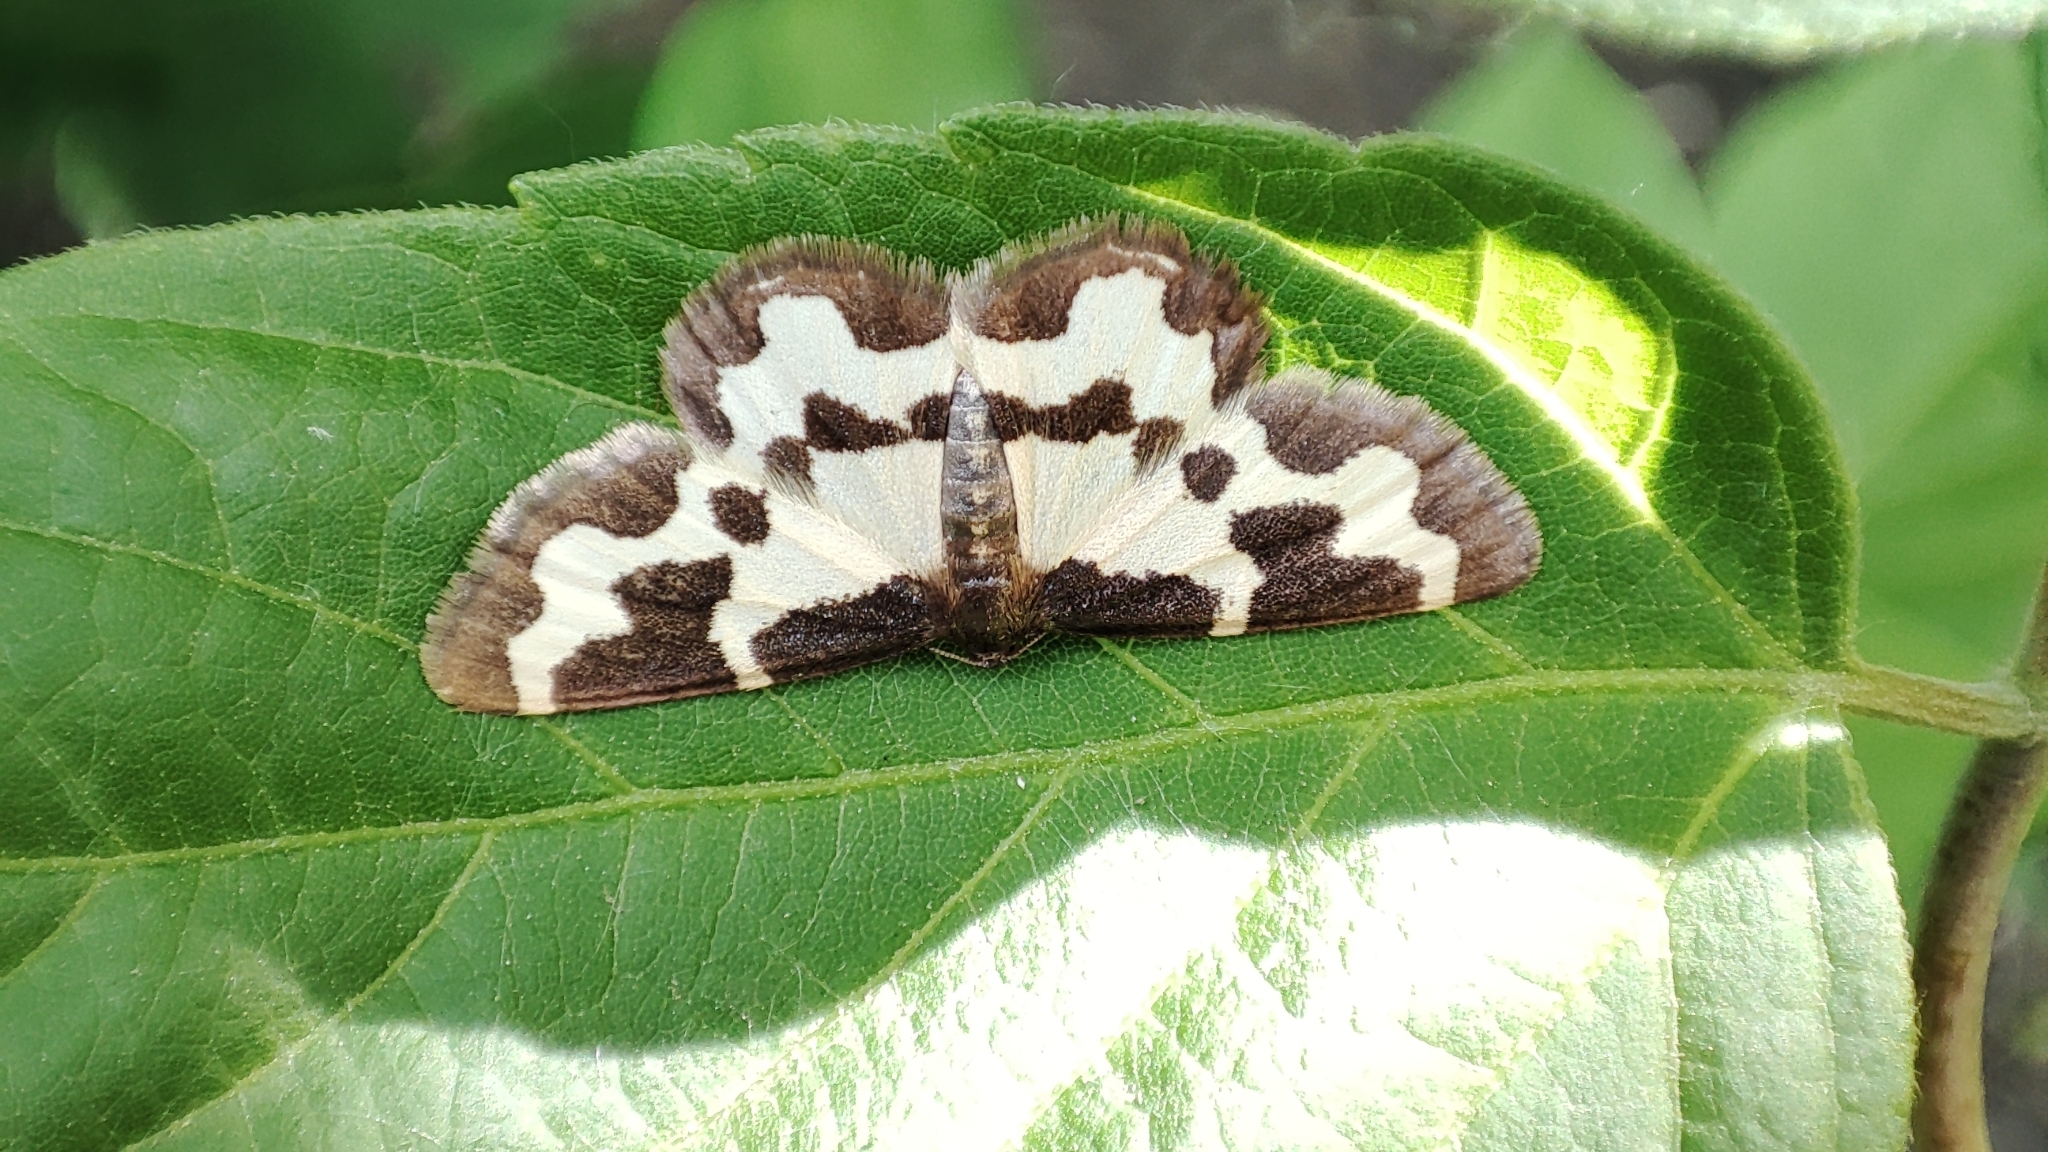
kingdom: Animalia
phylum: Arthropoda
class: Insecta
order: Lepidoptera
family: Geometridae
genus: Lomaspilis
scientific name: Lomaspilis marginata
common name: Clouded border
